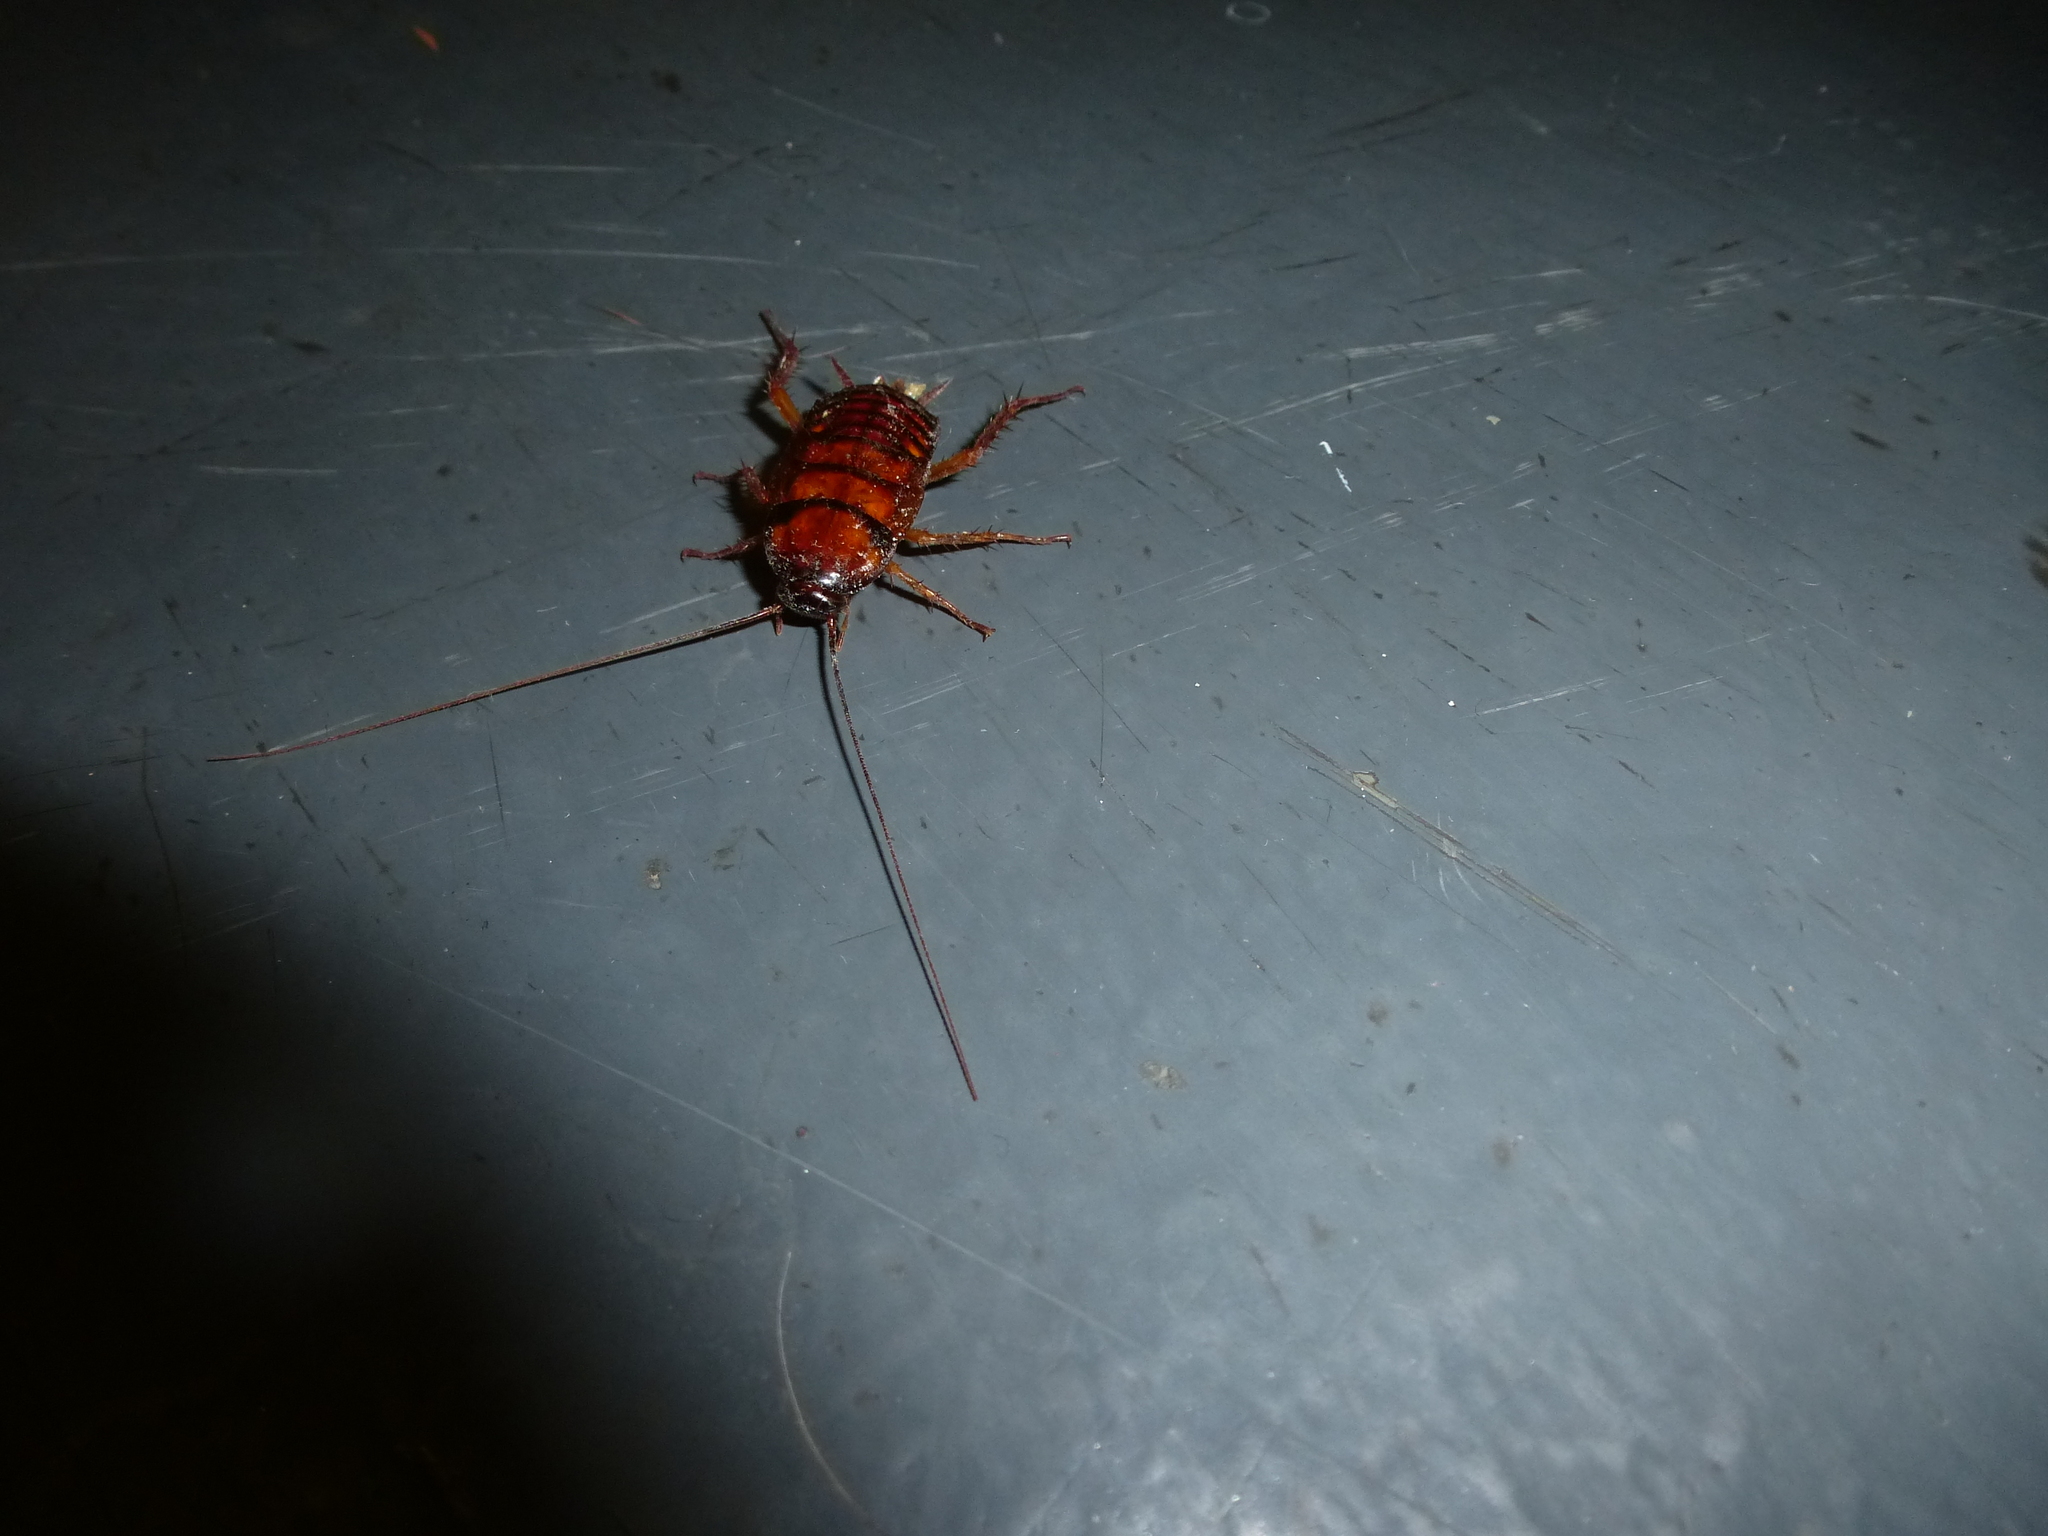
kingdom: Animalia
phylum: Arthropoda
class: Insecta
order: Blattodea
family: Blattidae
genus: Periplaneta
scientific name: Periplaneta americana
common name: American cockroach
